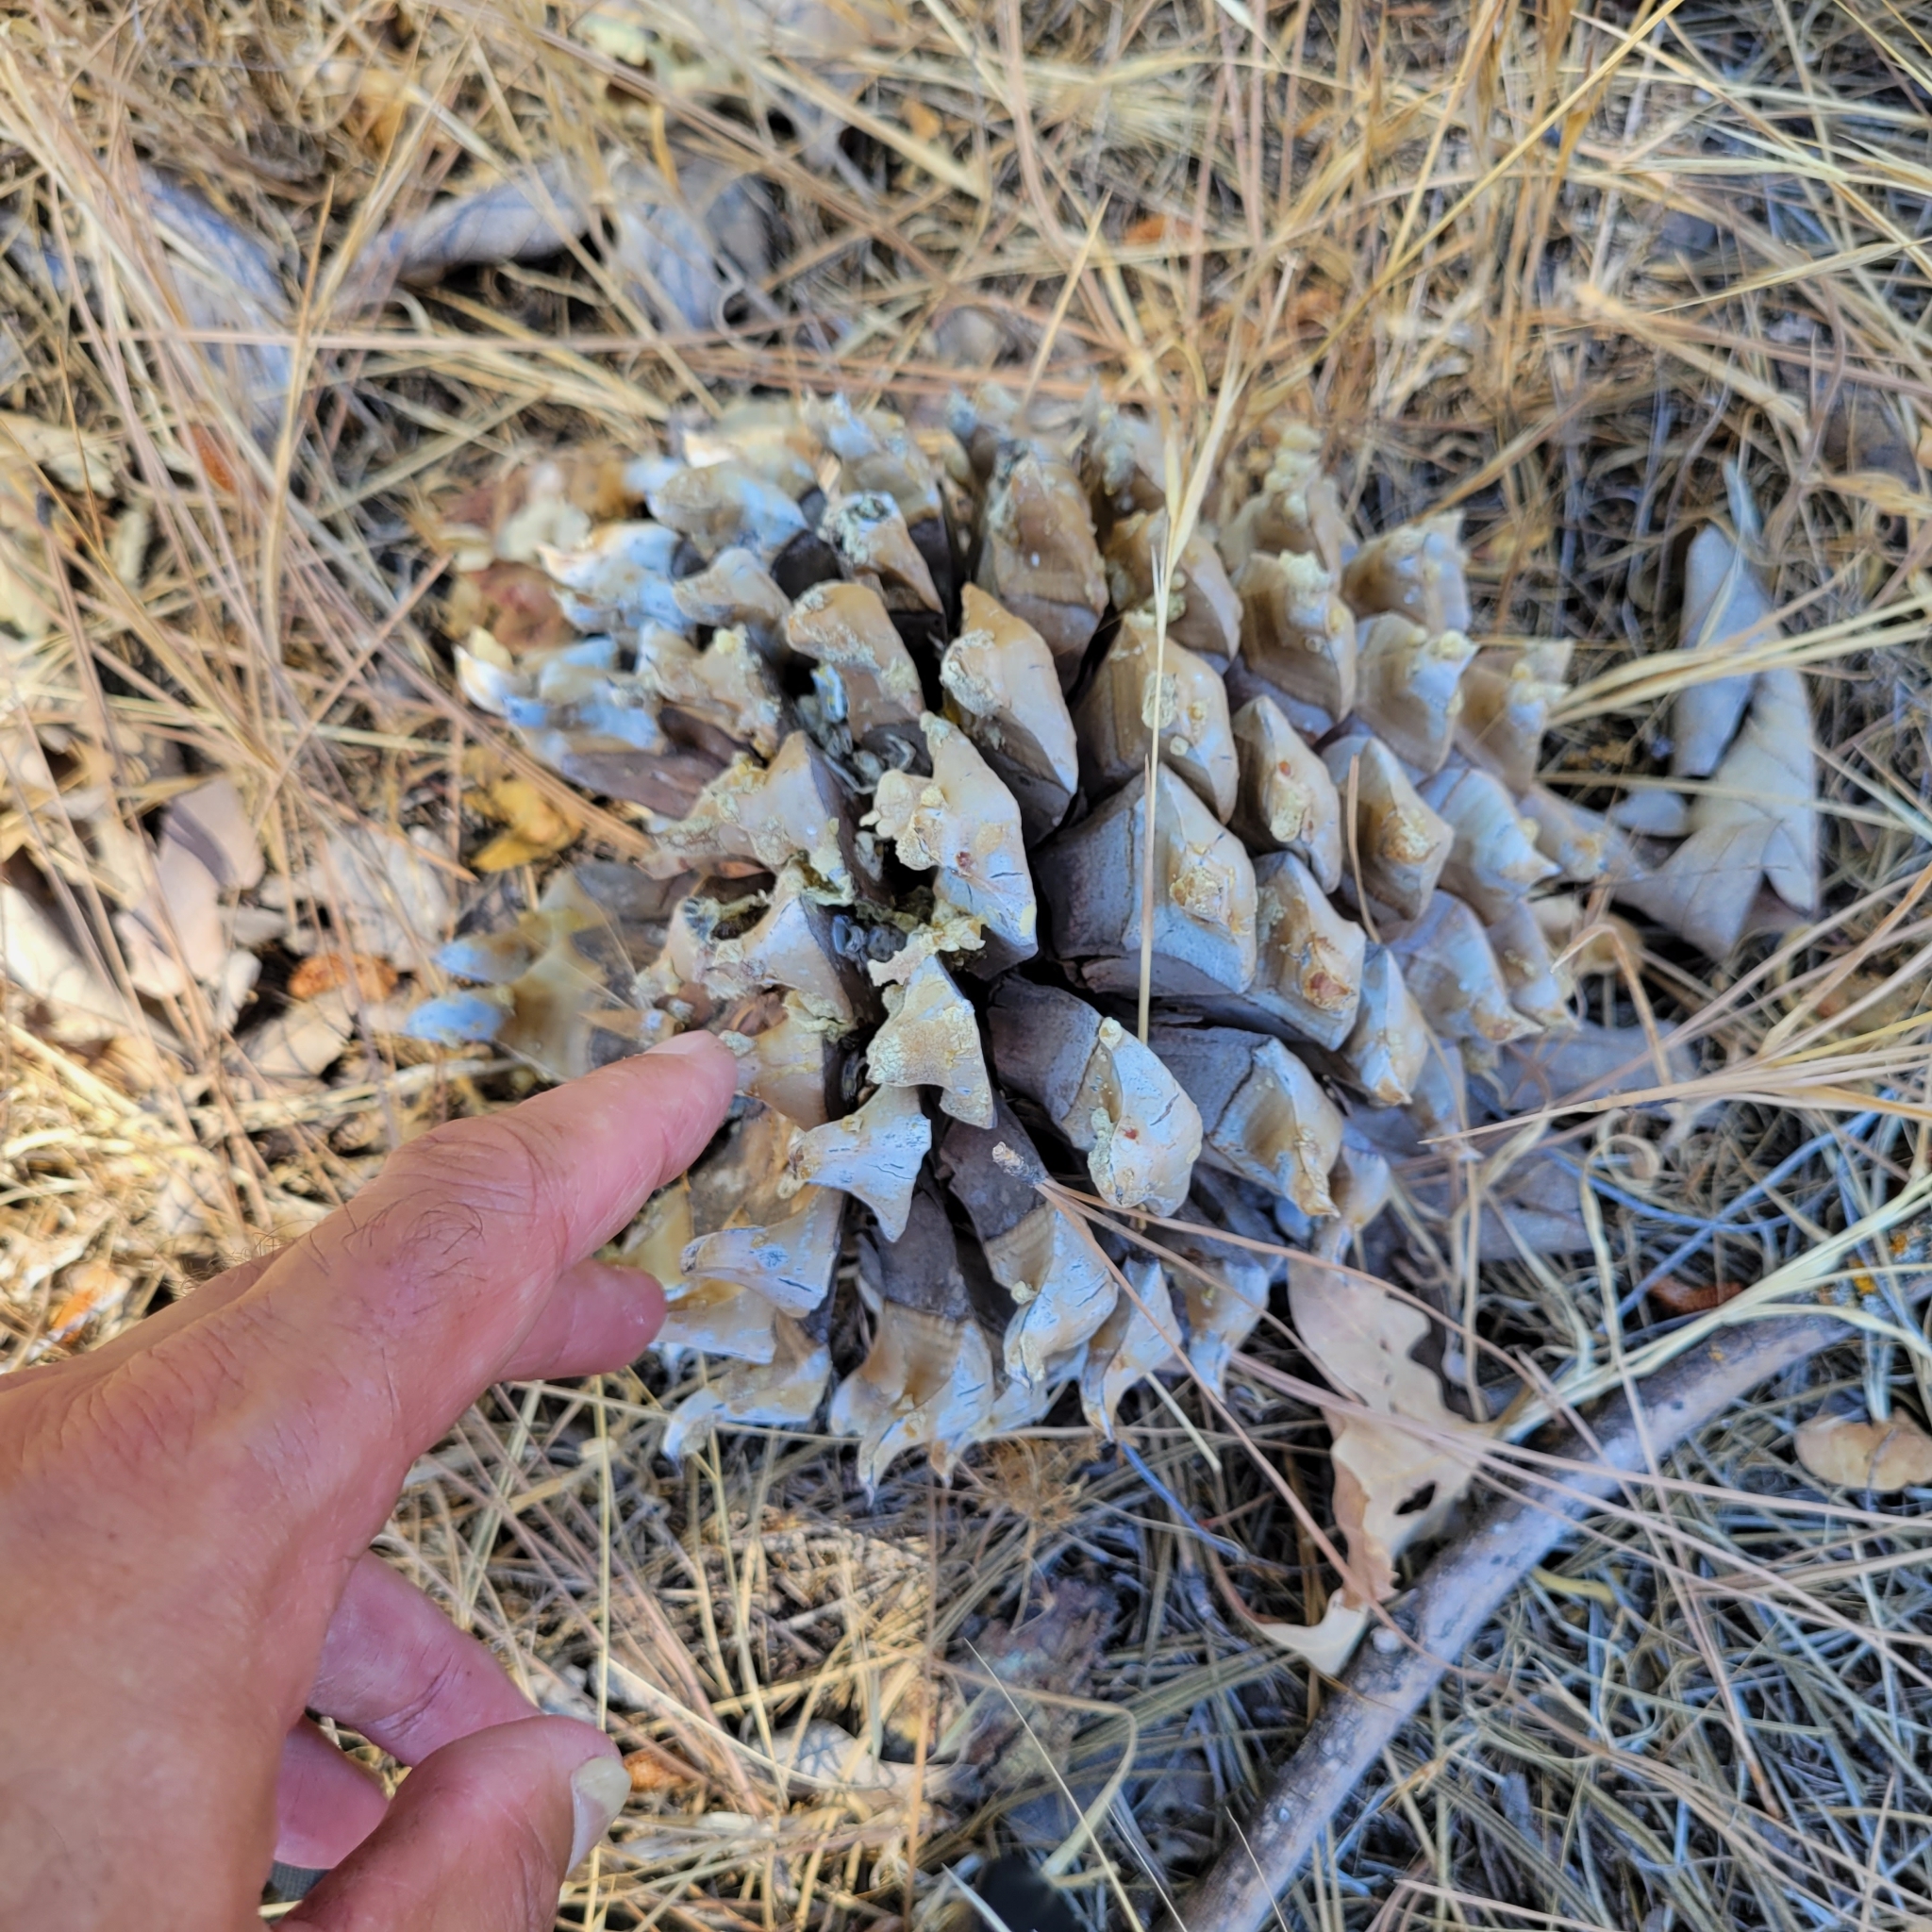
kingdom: Plantae
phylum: Tracheophyta
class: Pinopsida
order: Pinales
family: Pinaceae
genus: Pinus
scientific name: Pinus sabiniana
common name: Bull pine
